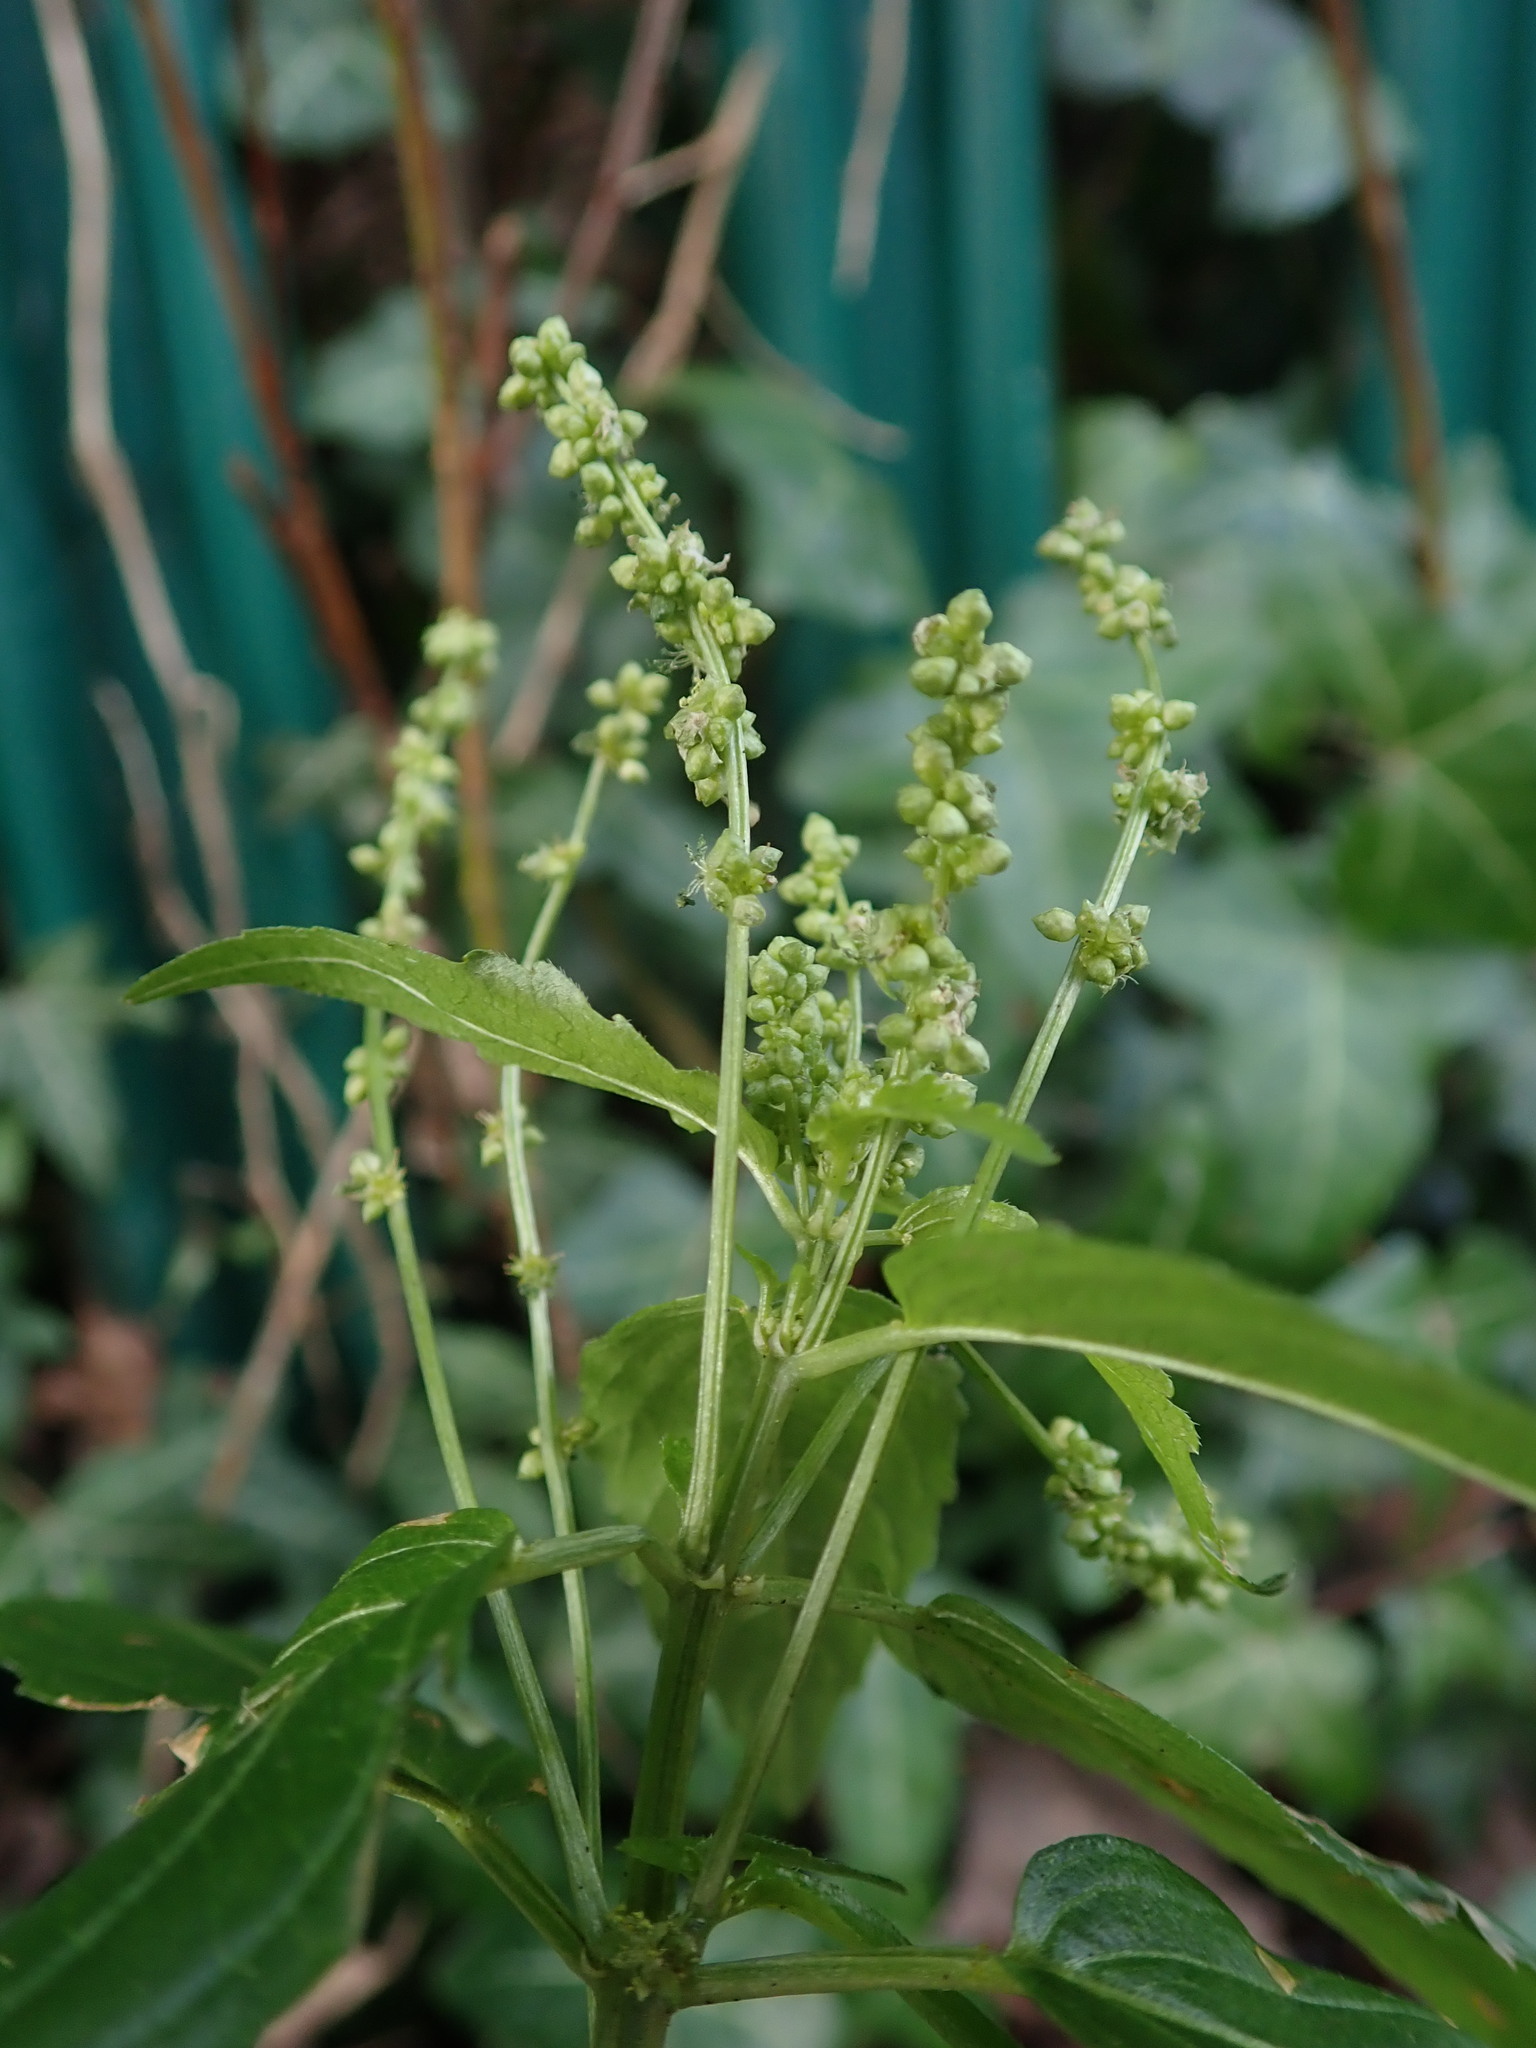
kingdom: Plantae
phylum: Tracheophyta
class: Magnoliopsida
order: Malpighiales
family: Euphorbiaceae
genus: Mercurialis
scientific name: Mercurialis annua
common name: Annual mercury
